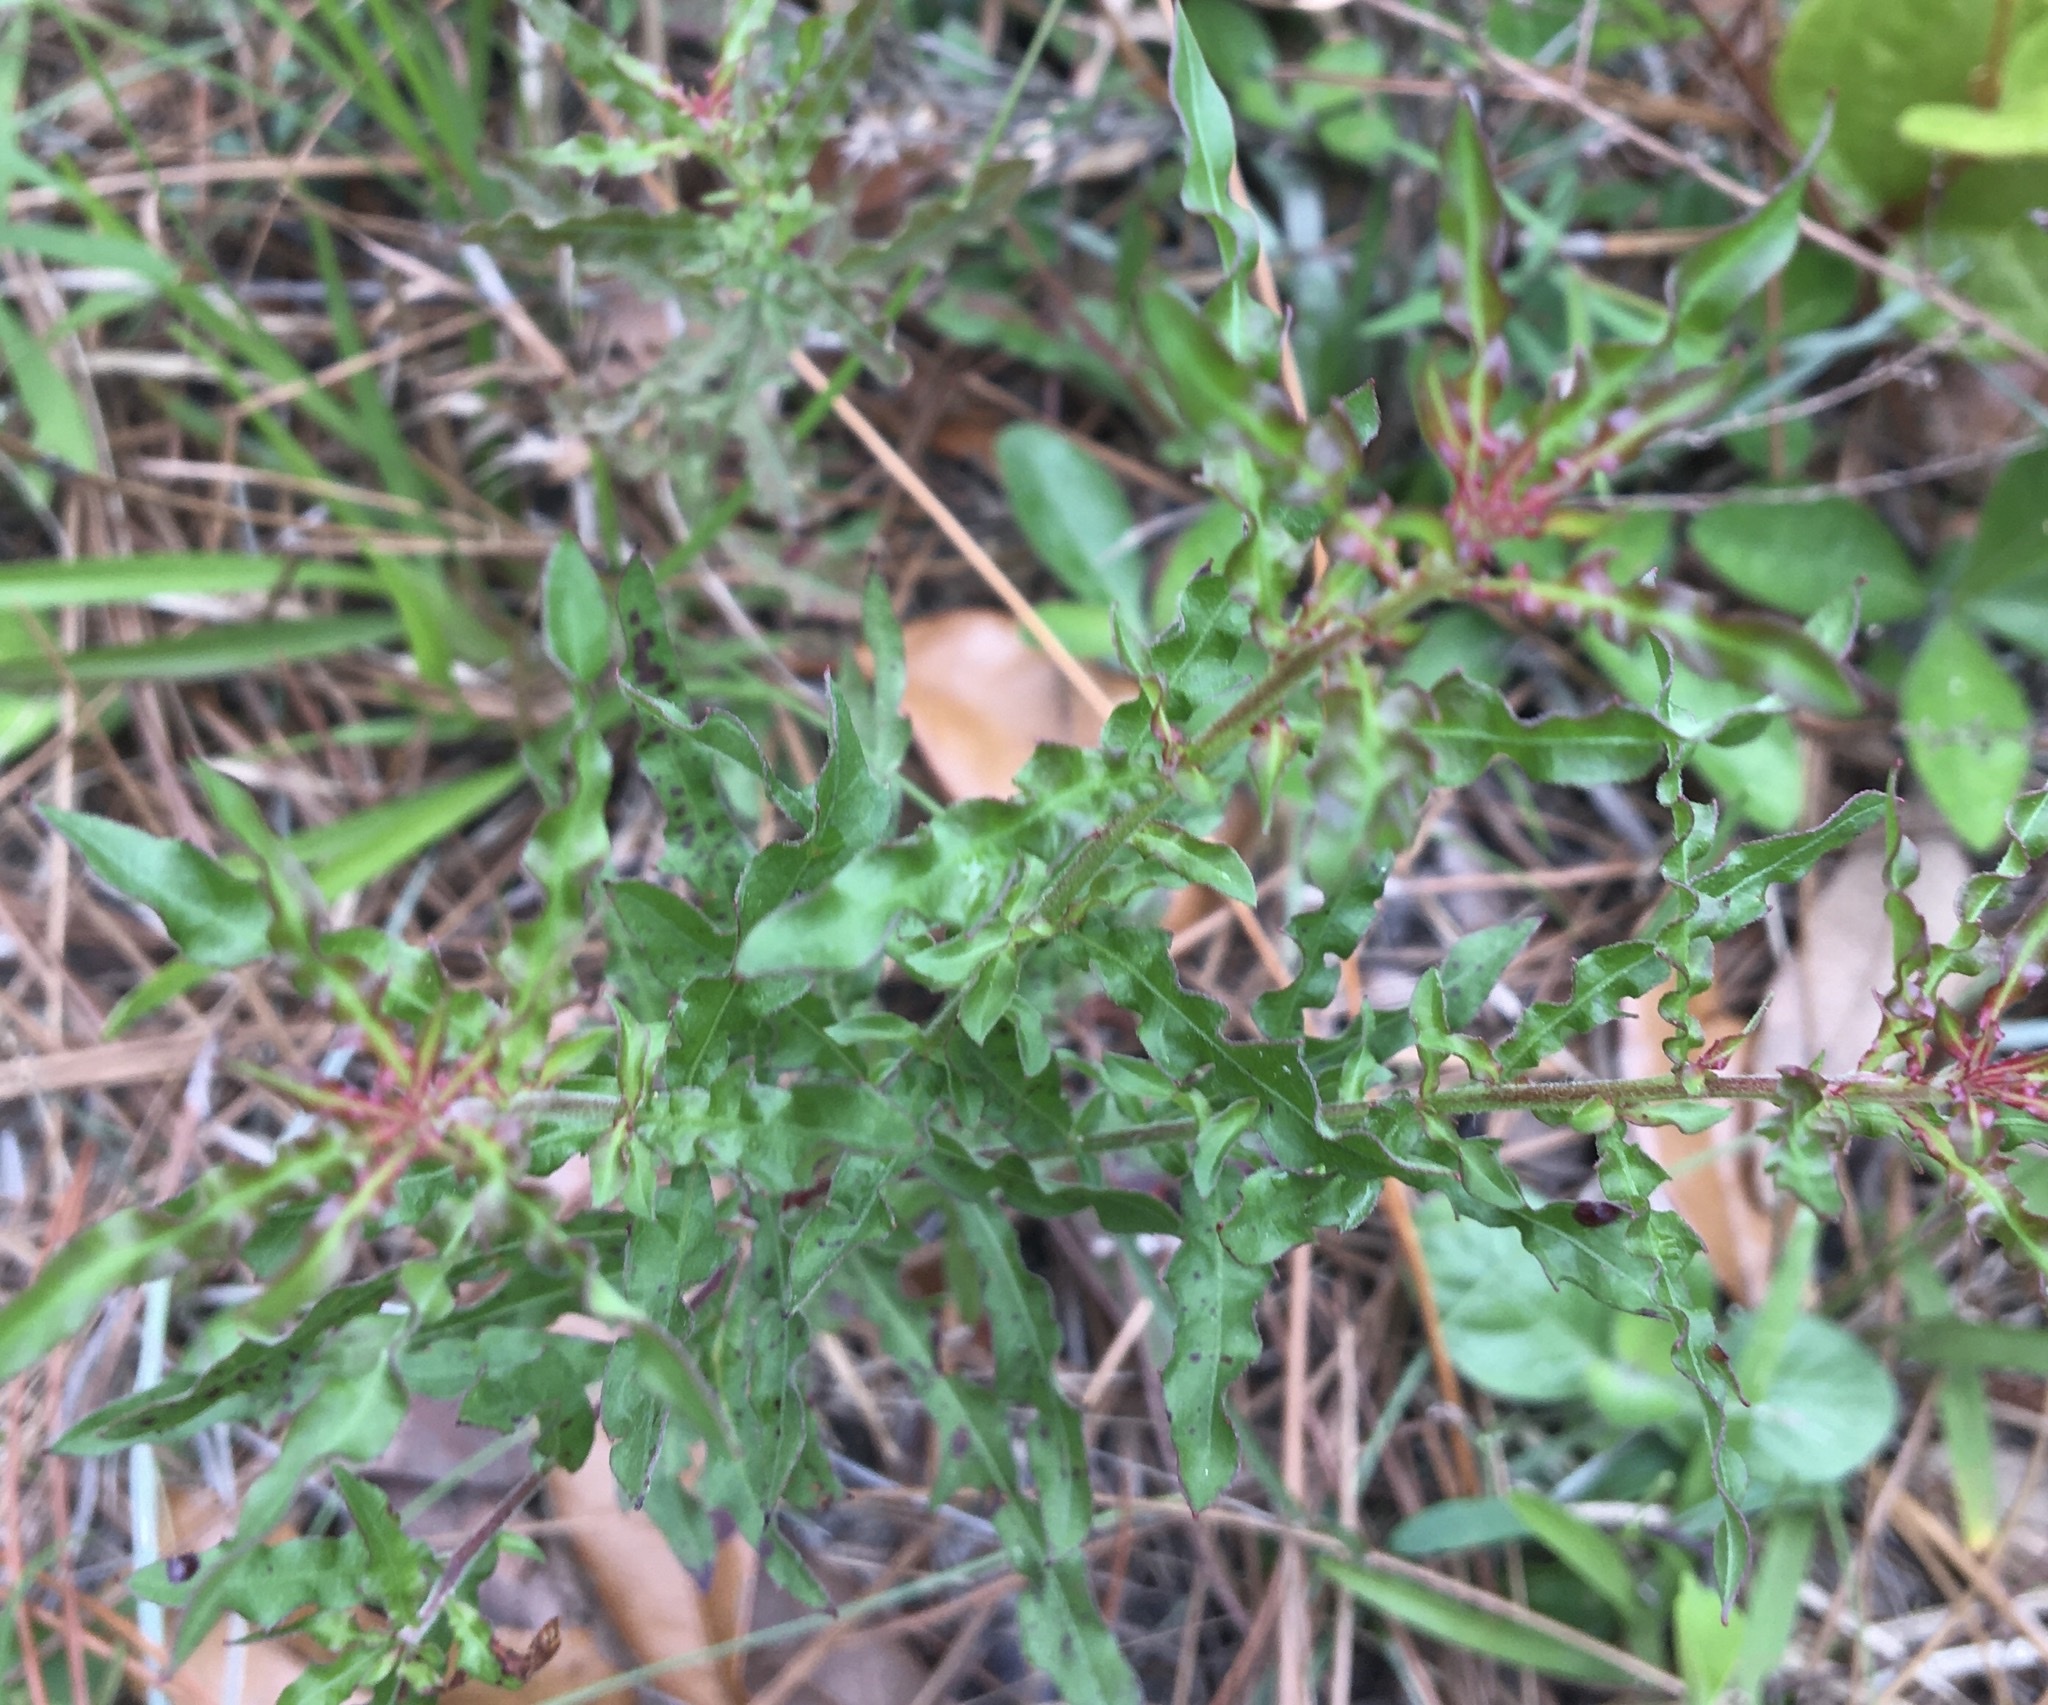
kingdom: Plantae
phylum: Tracheophyta
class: Magnoliopsida
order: Myrtales
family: Onagraceae
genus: Oenothera
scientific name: Oenothera filipes
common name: Slenderstalk beeblossom
